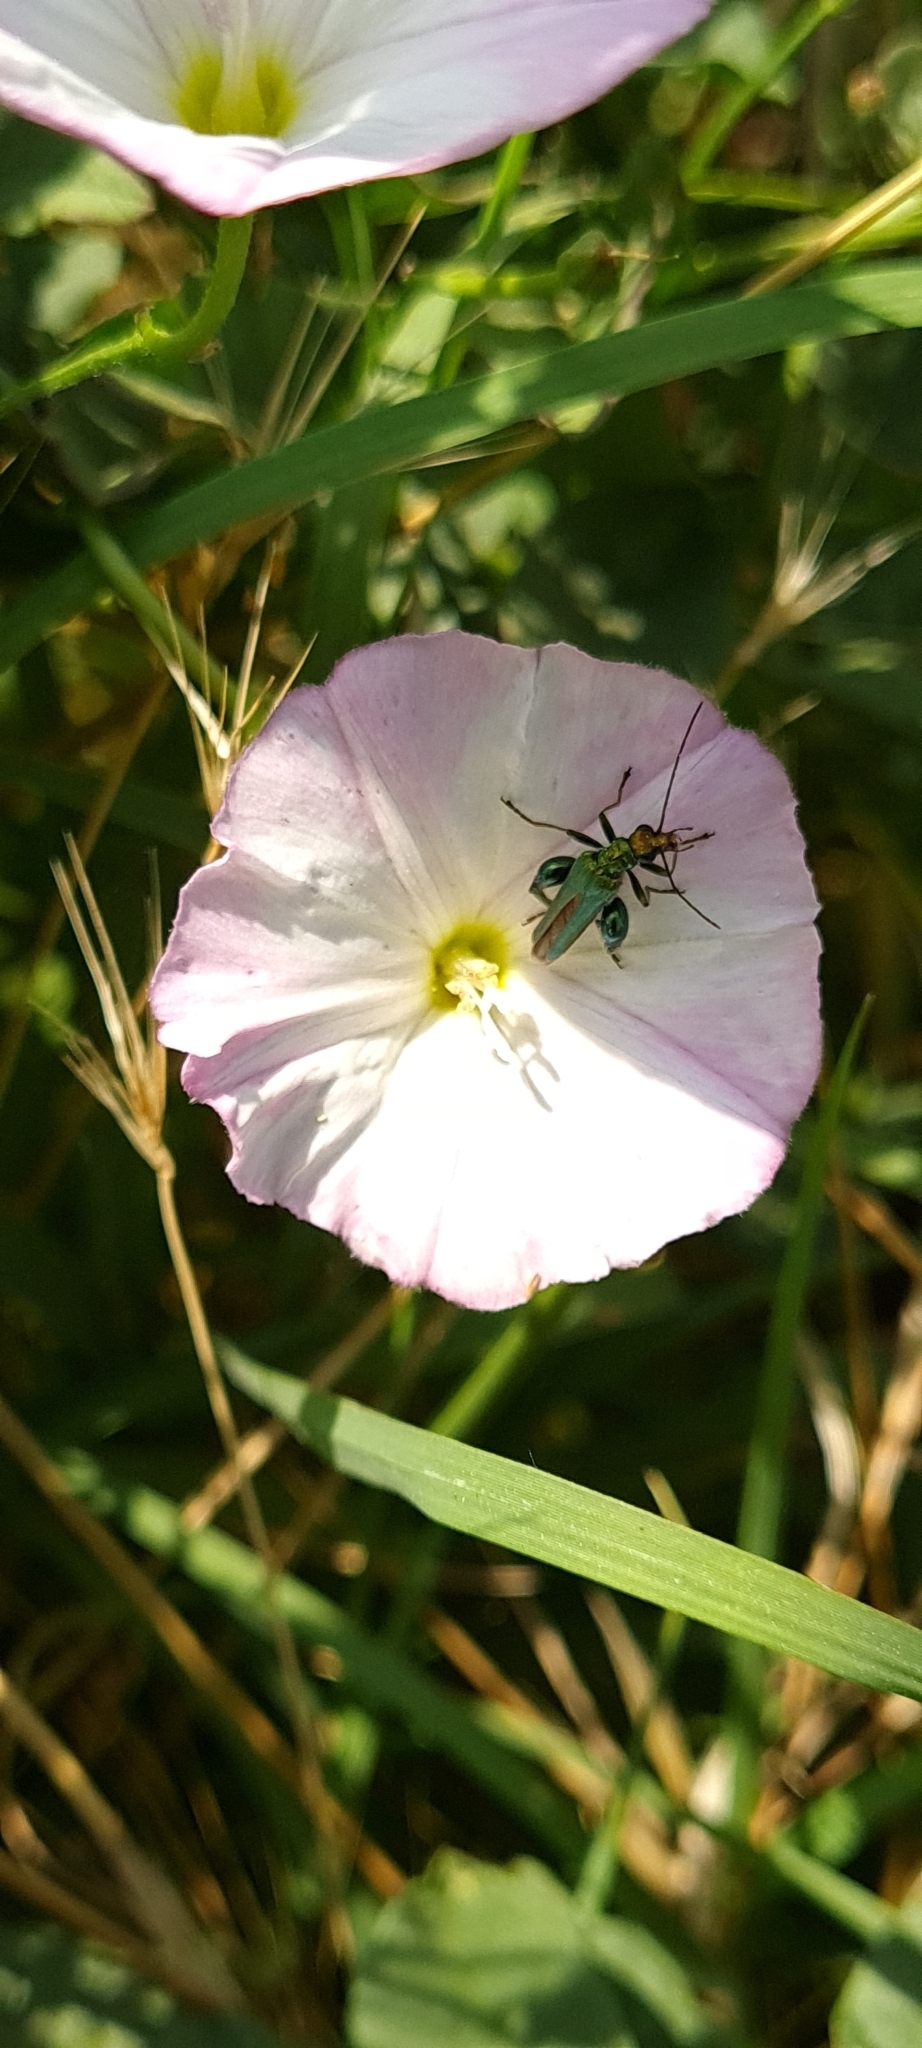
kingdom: Animalia
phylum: Arthropoda
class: Insecta
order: Coleoptera
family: Oedemeridae
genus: Oedemera
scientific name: Oedemera nobilis
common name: Swollen-thighed beetle
